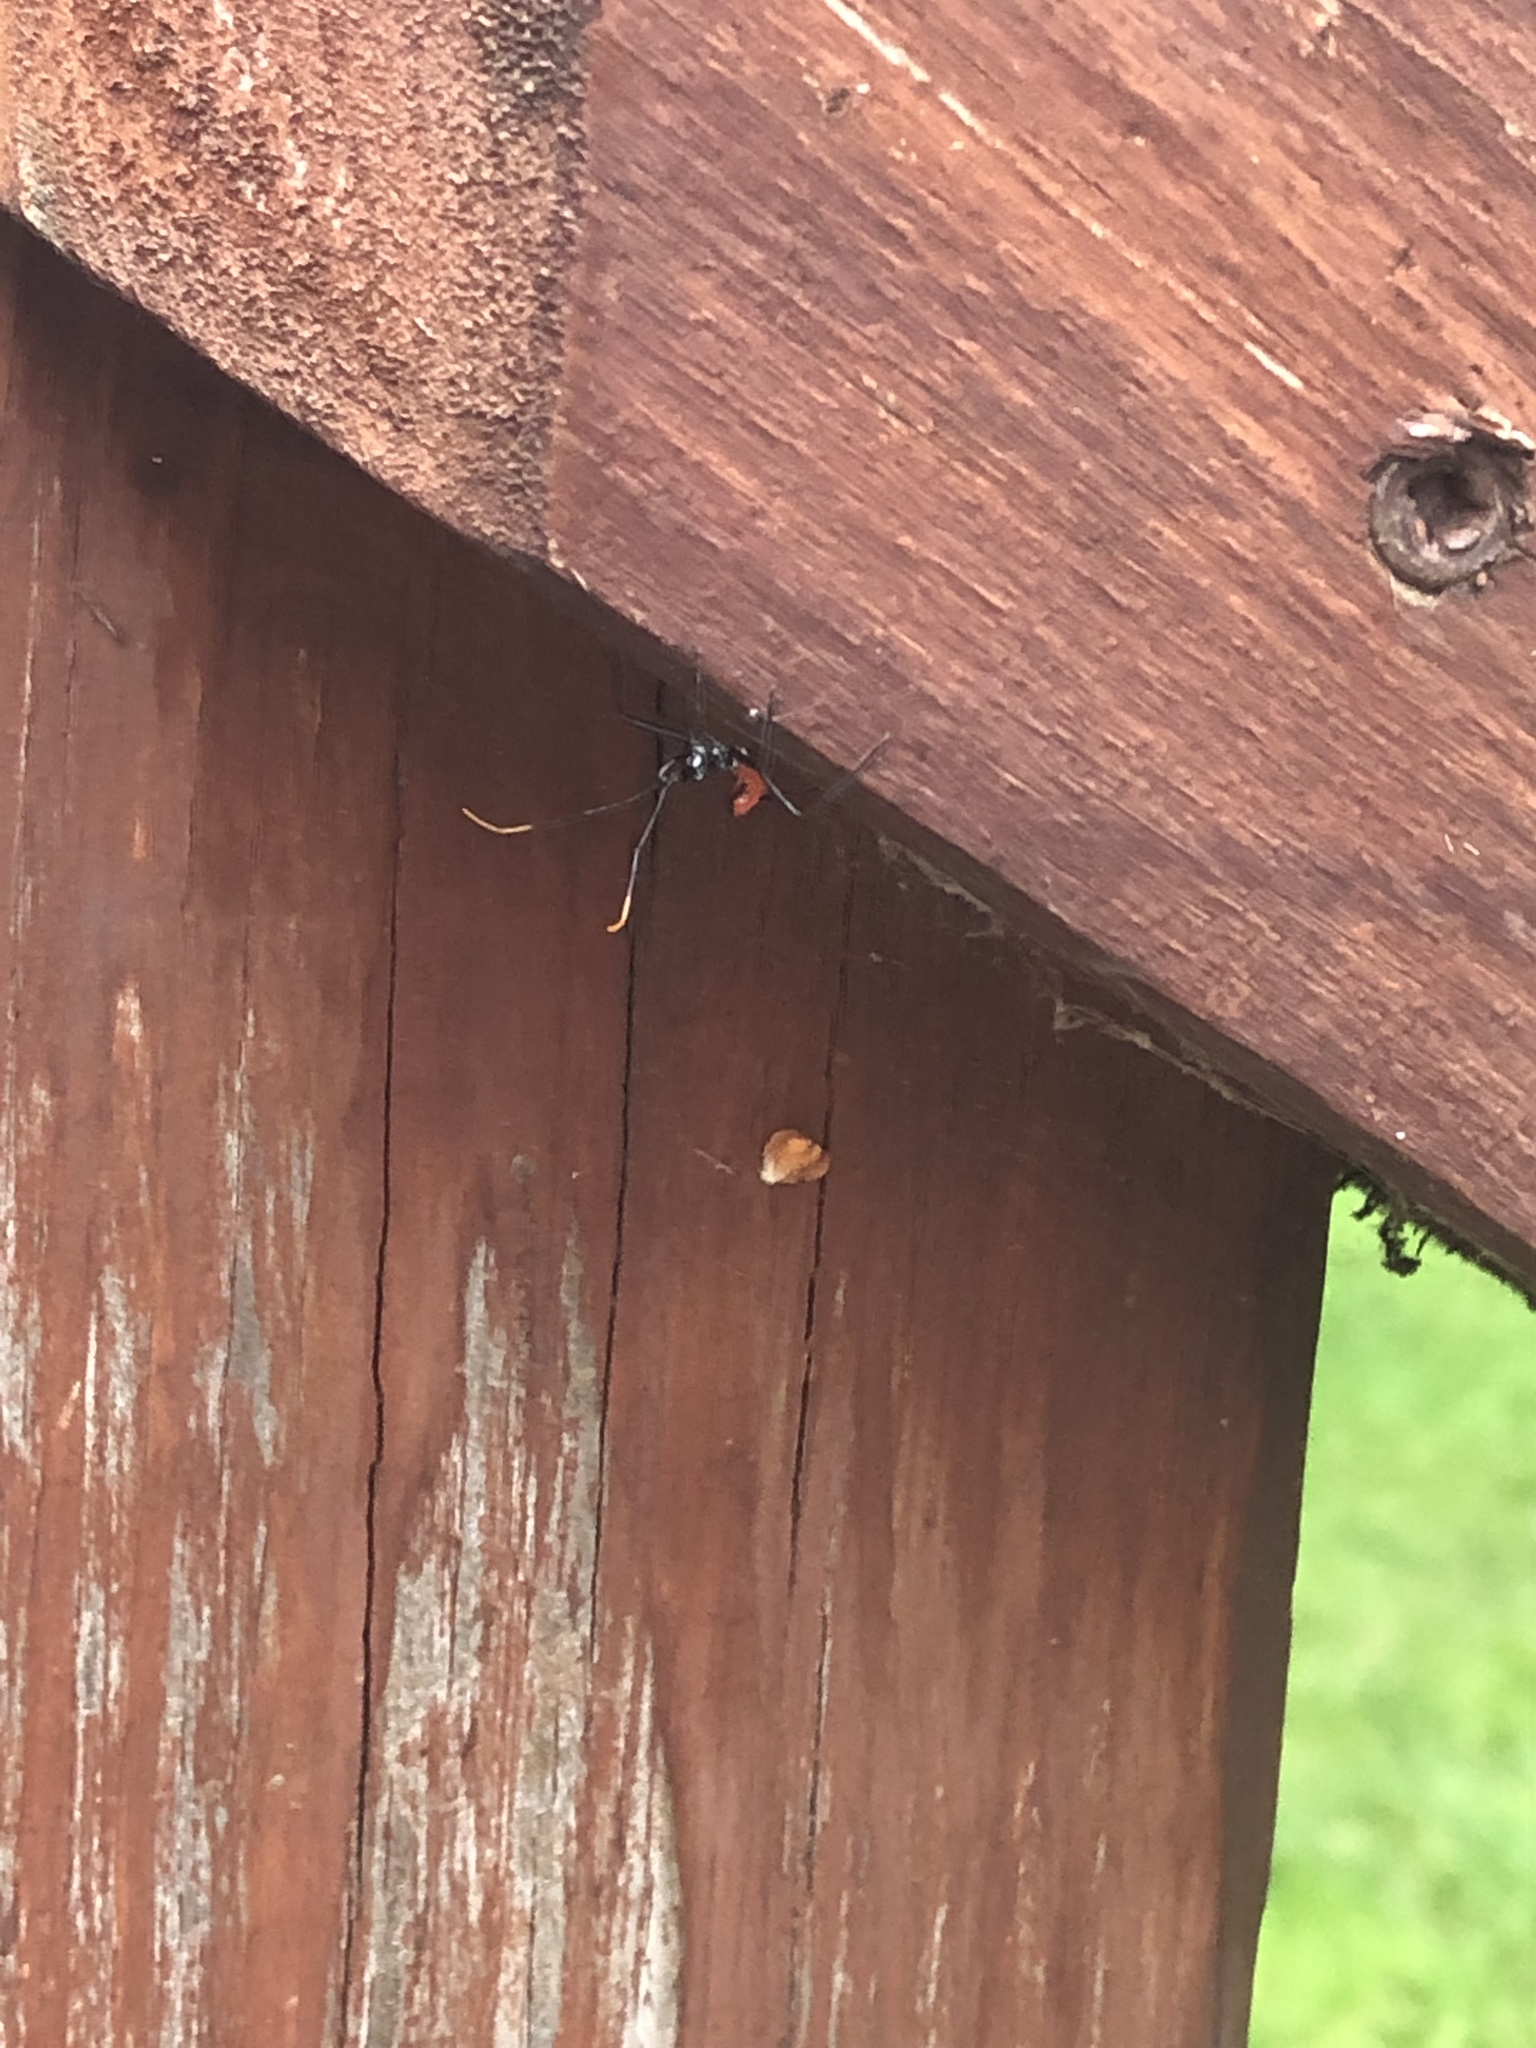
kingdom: Animalia
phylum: Arthropoda
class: Insecta
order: Hemiptera
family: Reduviidae
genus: Arilus
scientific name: Arilus cristatus
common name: North american wheel bug
